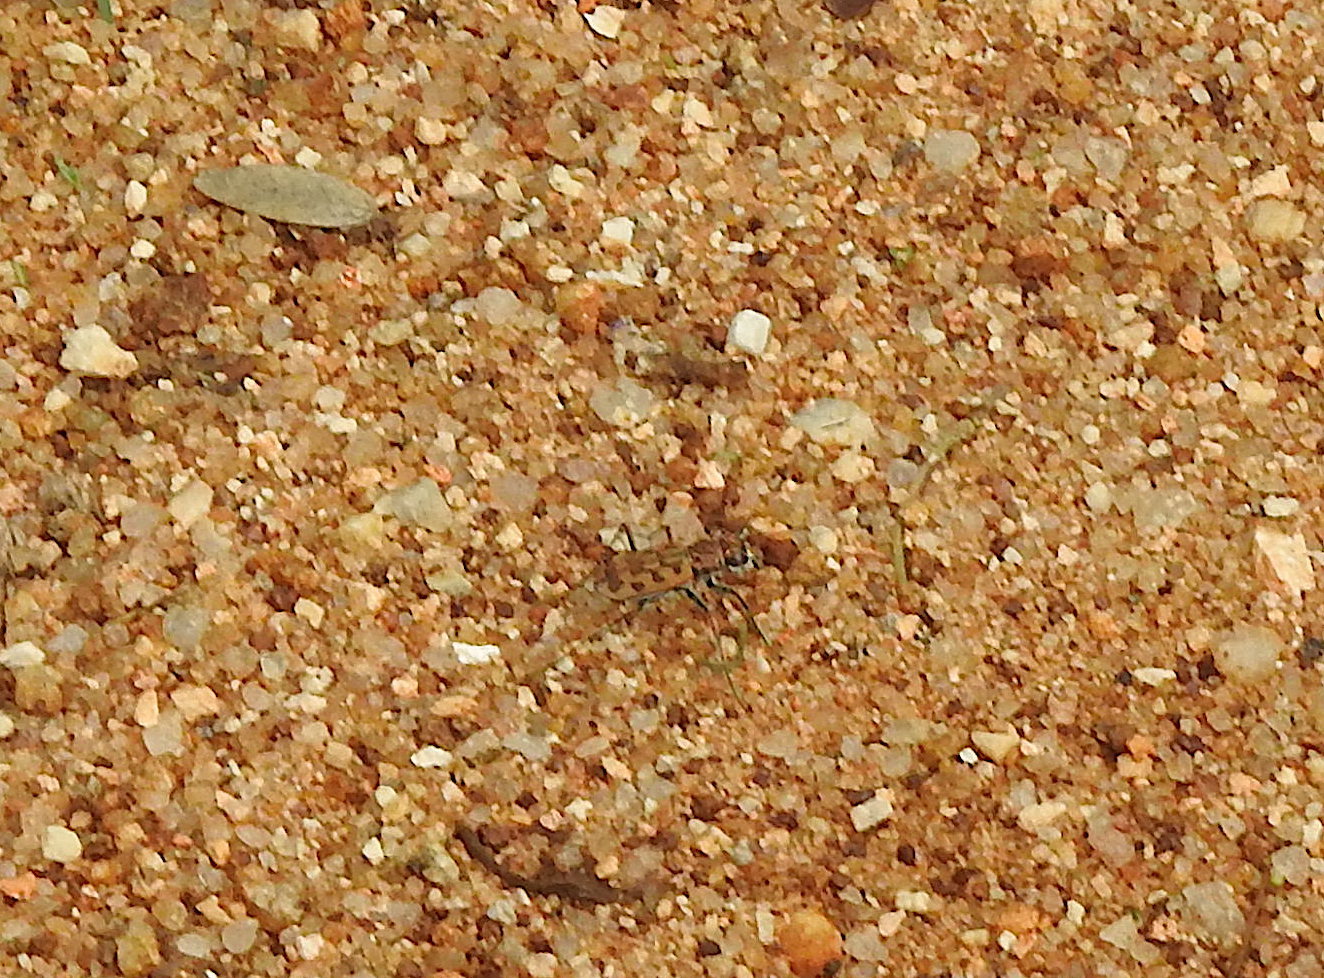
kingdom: Animalia
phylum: Arthropoda
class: Insecta
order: Coleoptera
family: Carabidae
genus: Lophyra
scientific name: Lophyra catena
